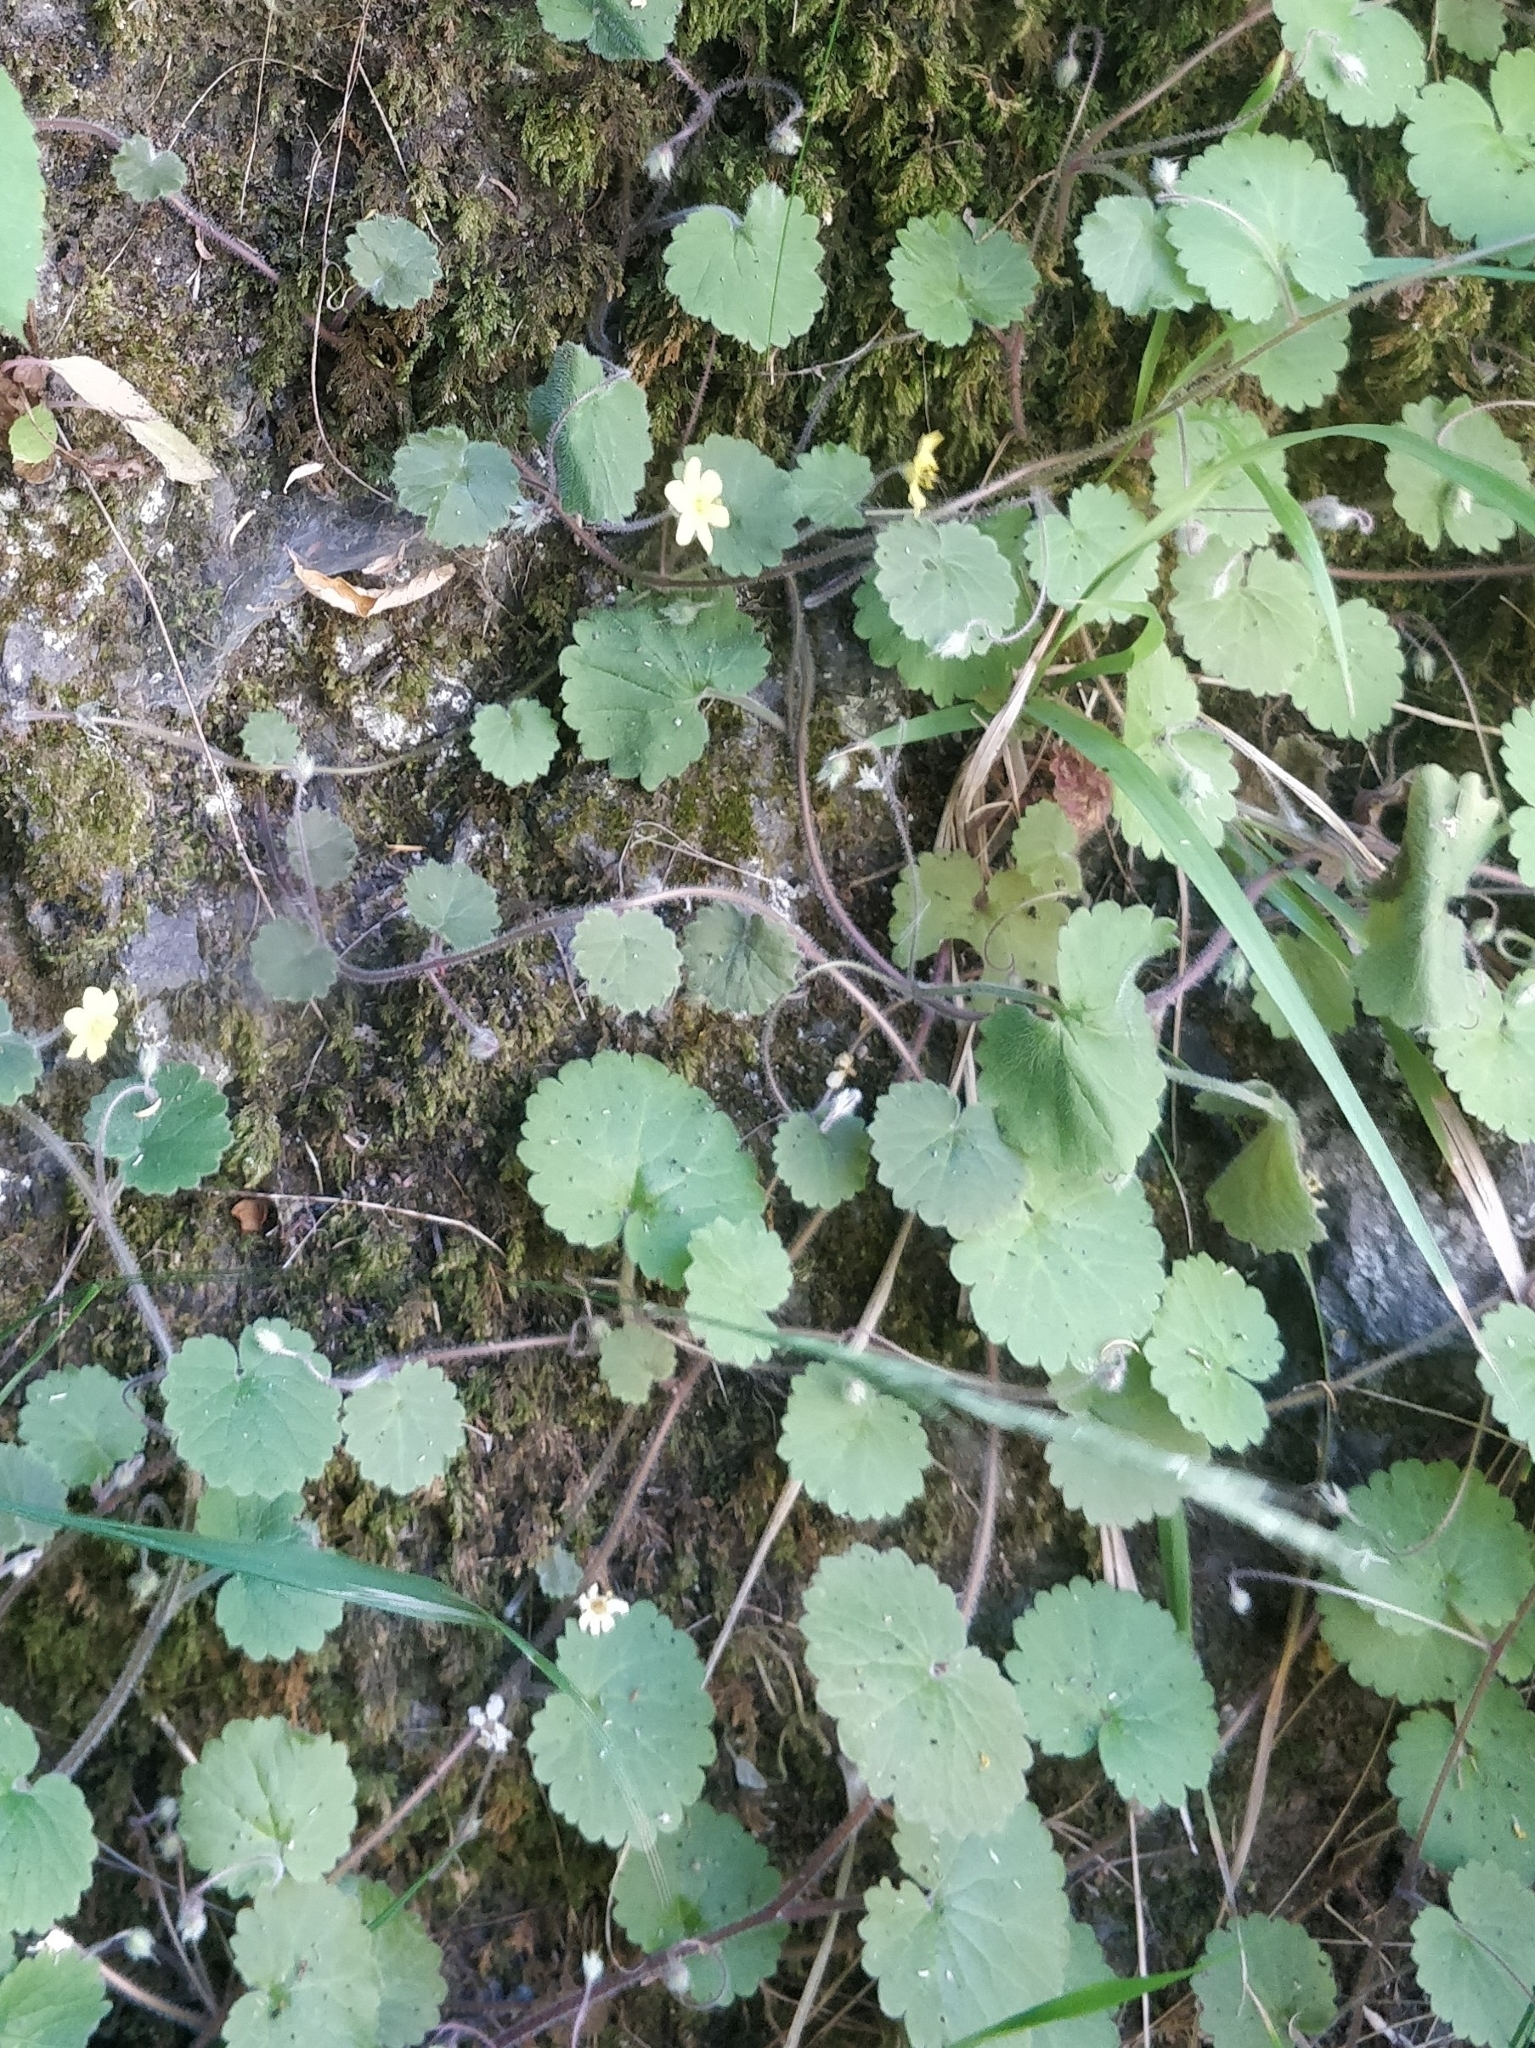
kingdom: Plantae
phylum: Tracheophyta
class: Magnoliopsida
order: Lamiales
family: Plantaginaceae
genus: Sibthorpia
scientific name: Sibthorpia peregrina
